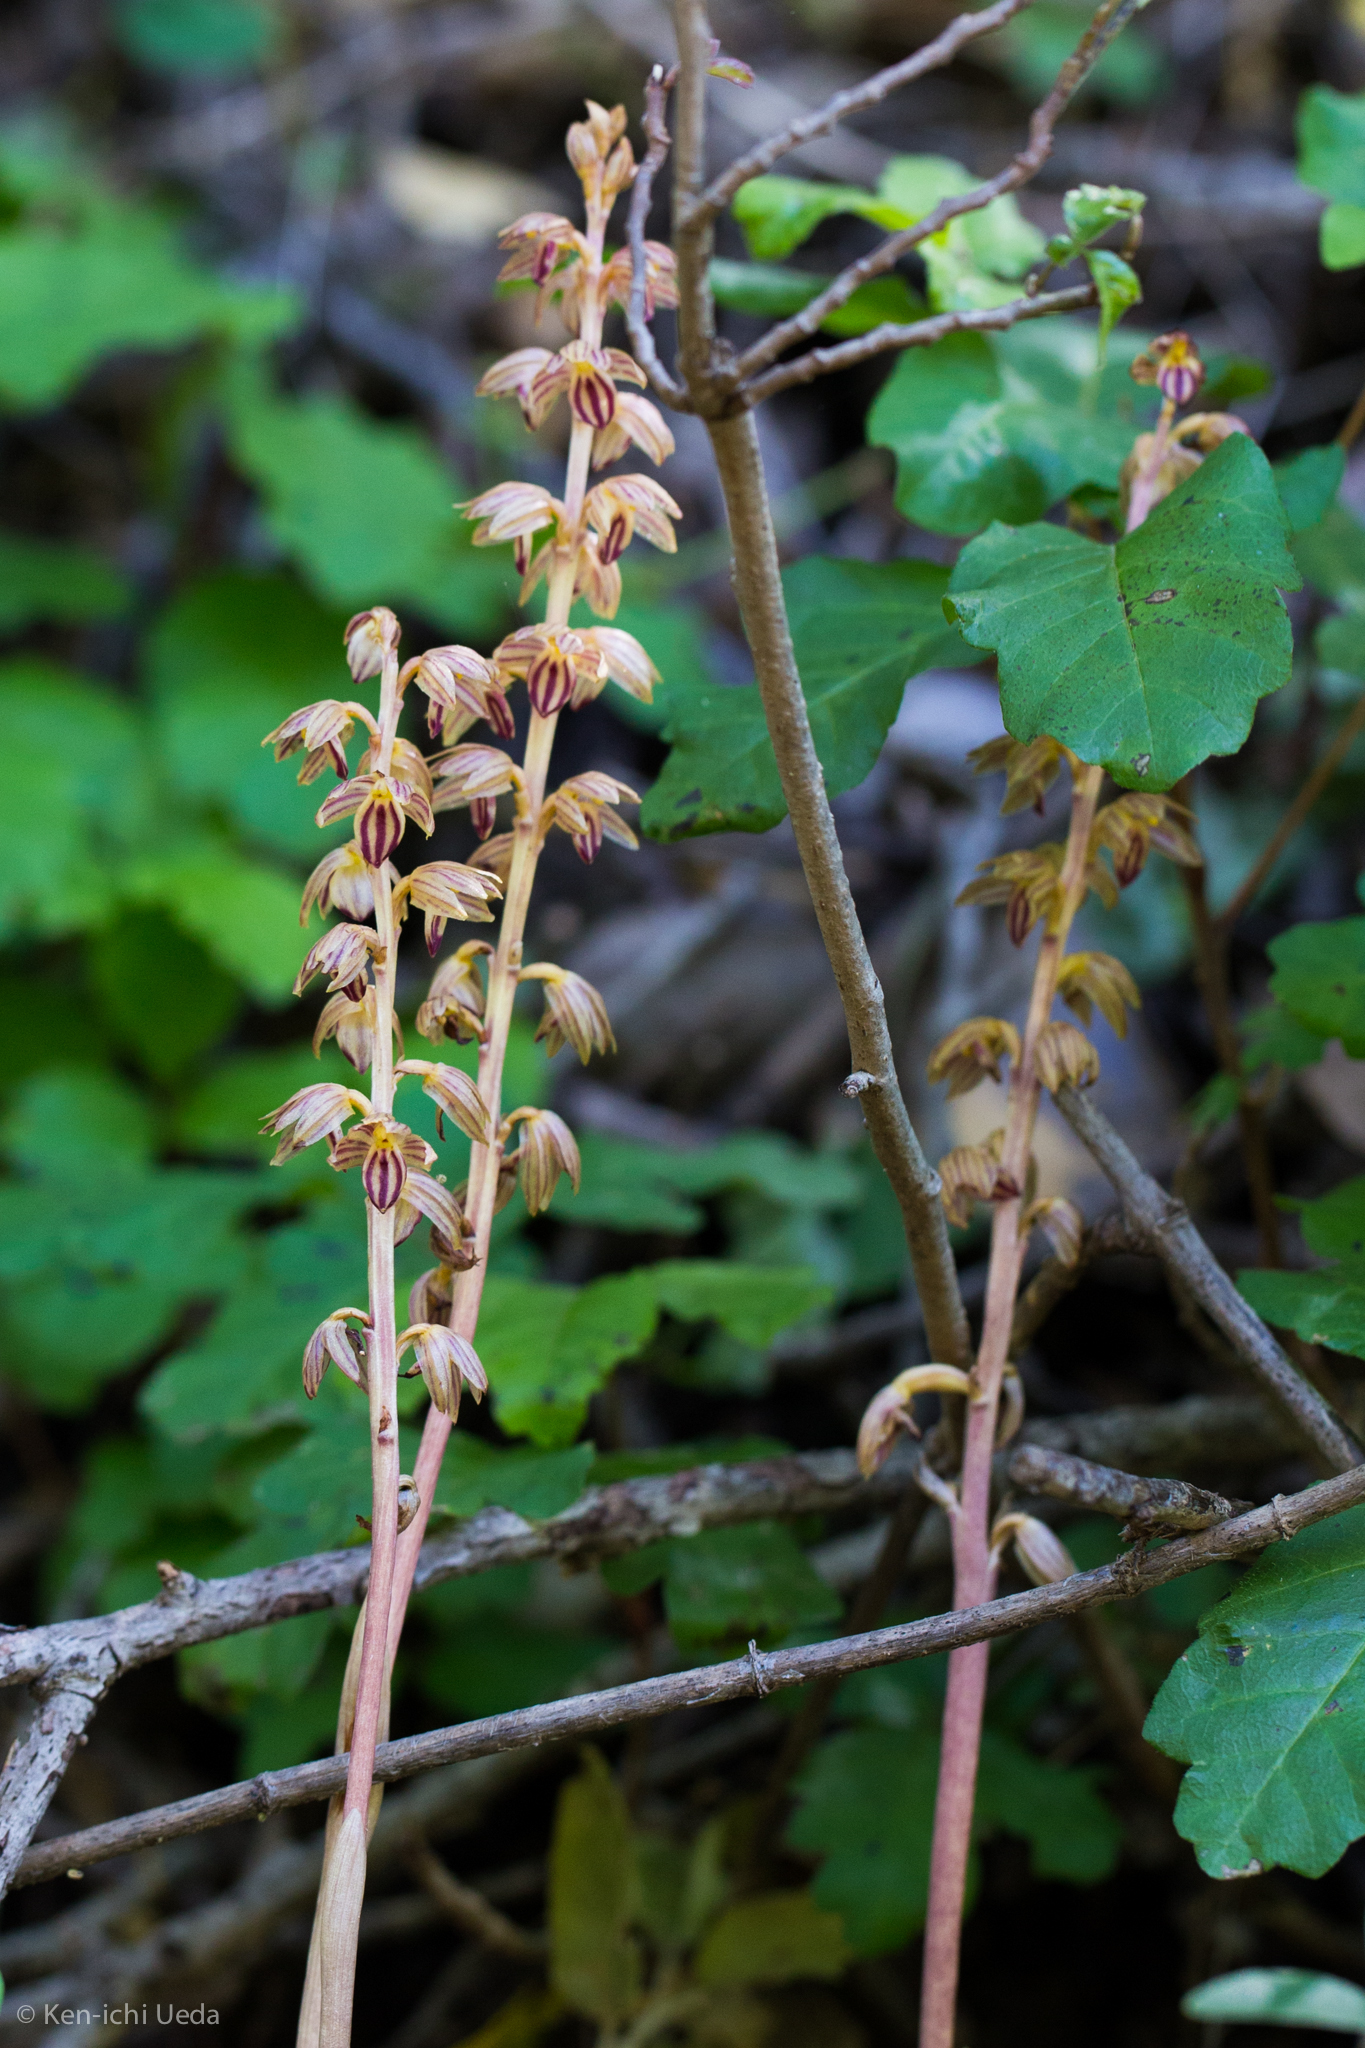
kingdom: Plantae
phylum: Tracheophyta
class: Liliopsida
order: Asparagales
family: Orchidaceae
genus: Corallorhiza
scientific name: Corallorhiza striata
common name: Hooded coralroot
